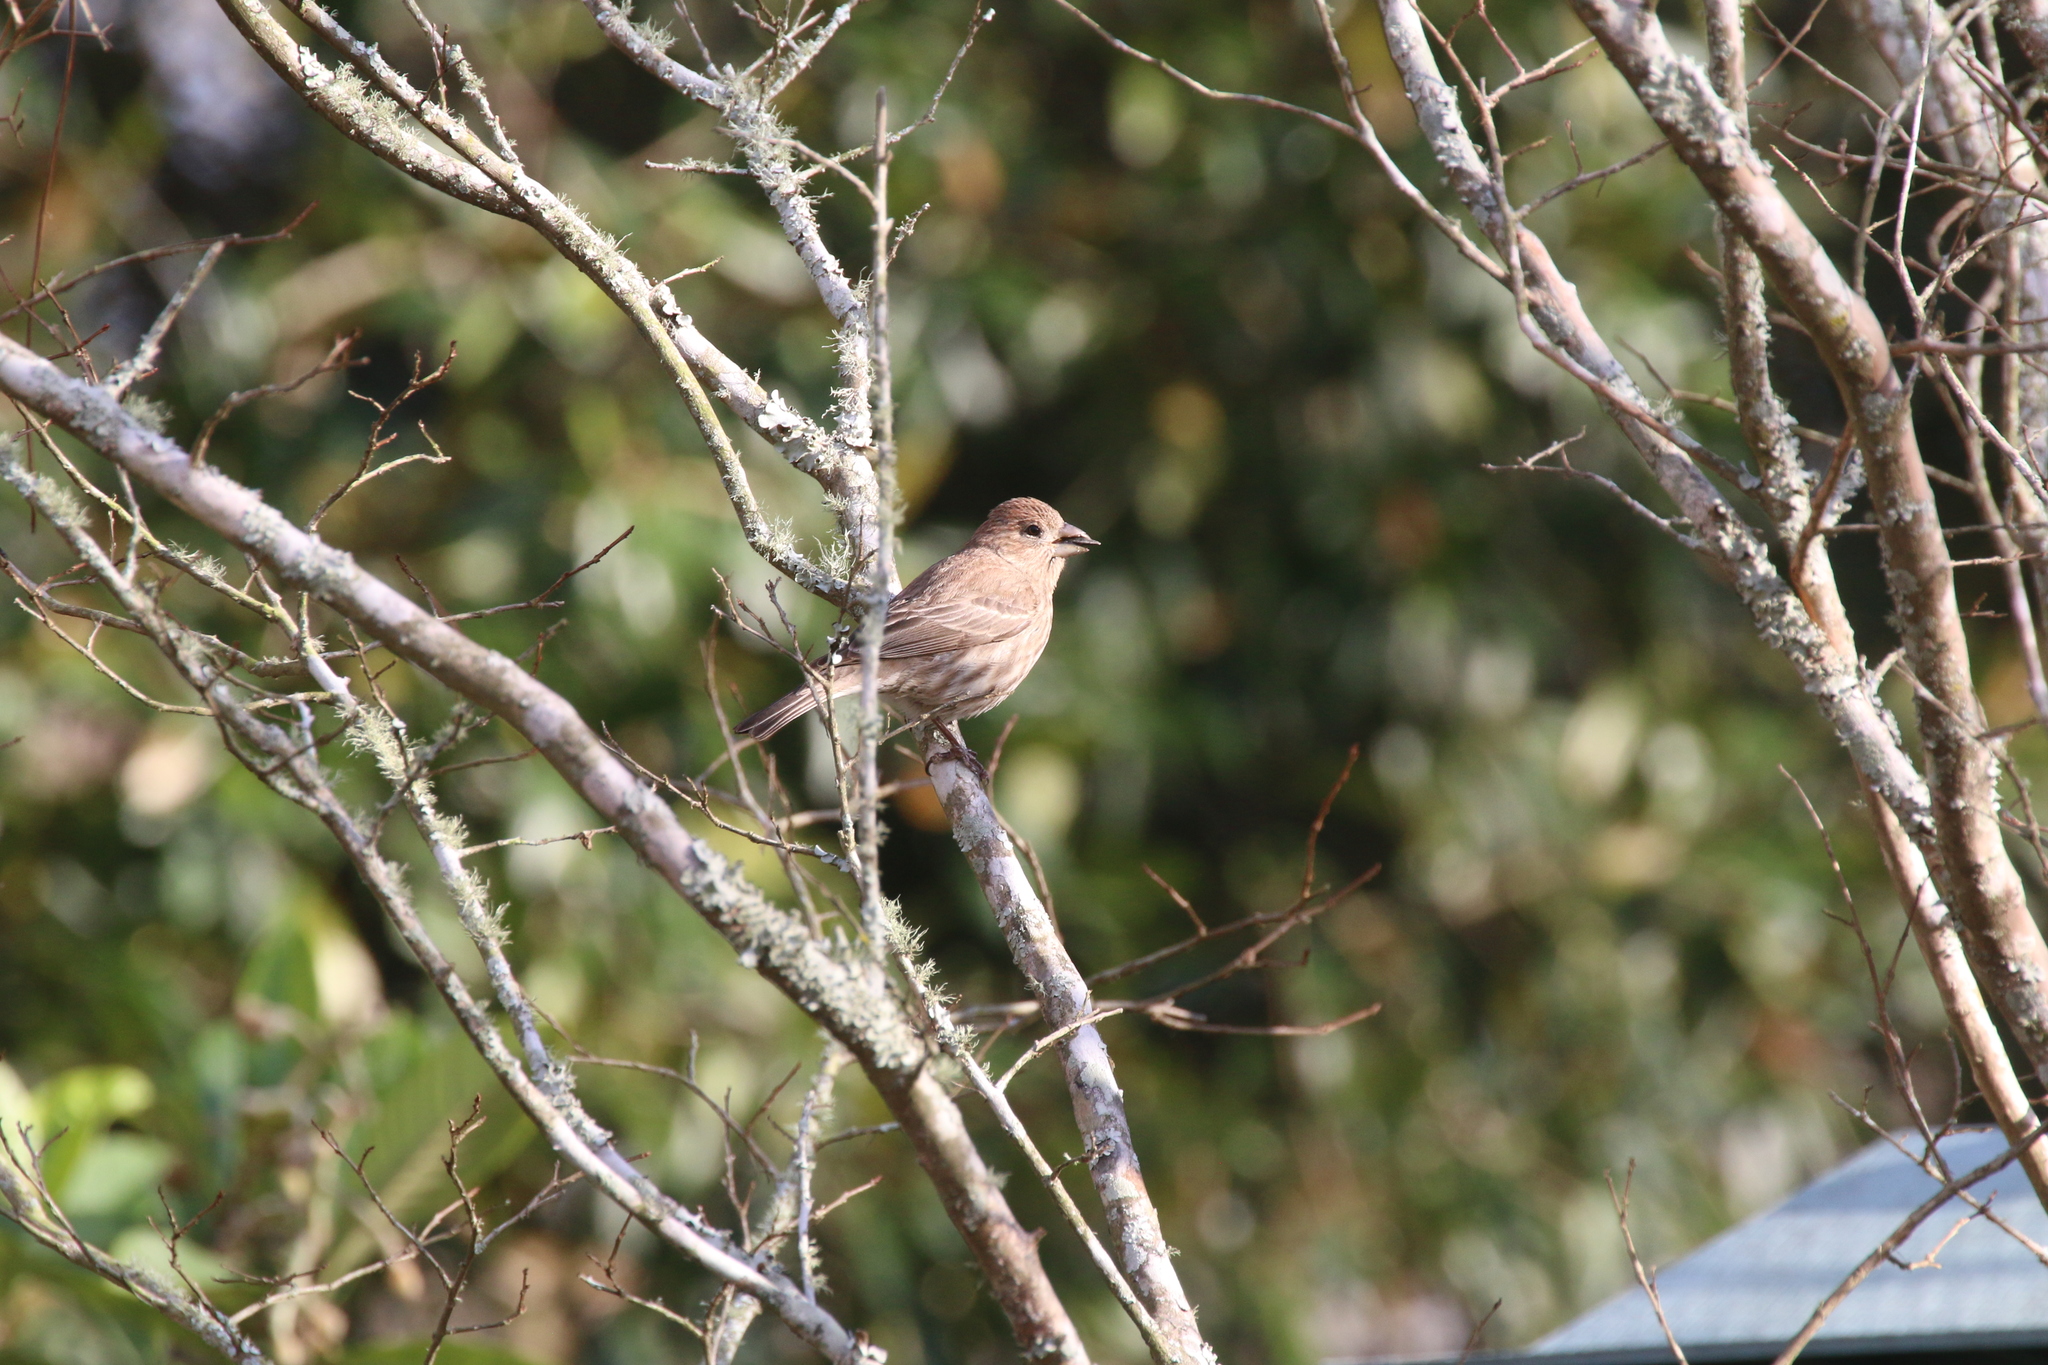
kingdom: Animalia
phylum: Chordata
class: Aves
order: Passeriformes
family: Fringillidae
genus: Haemorhous
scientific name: Haemorhous mexicanus
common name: House finch
